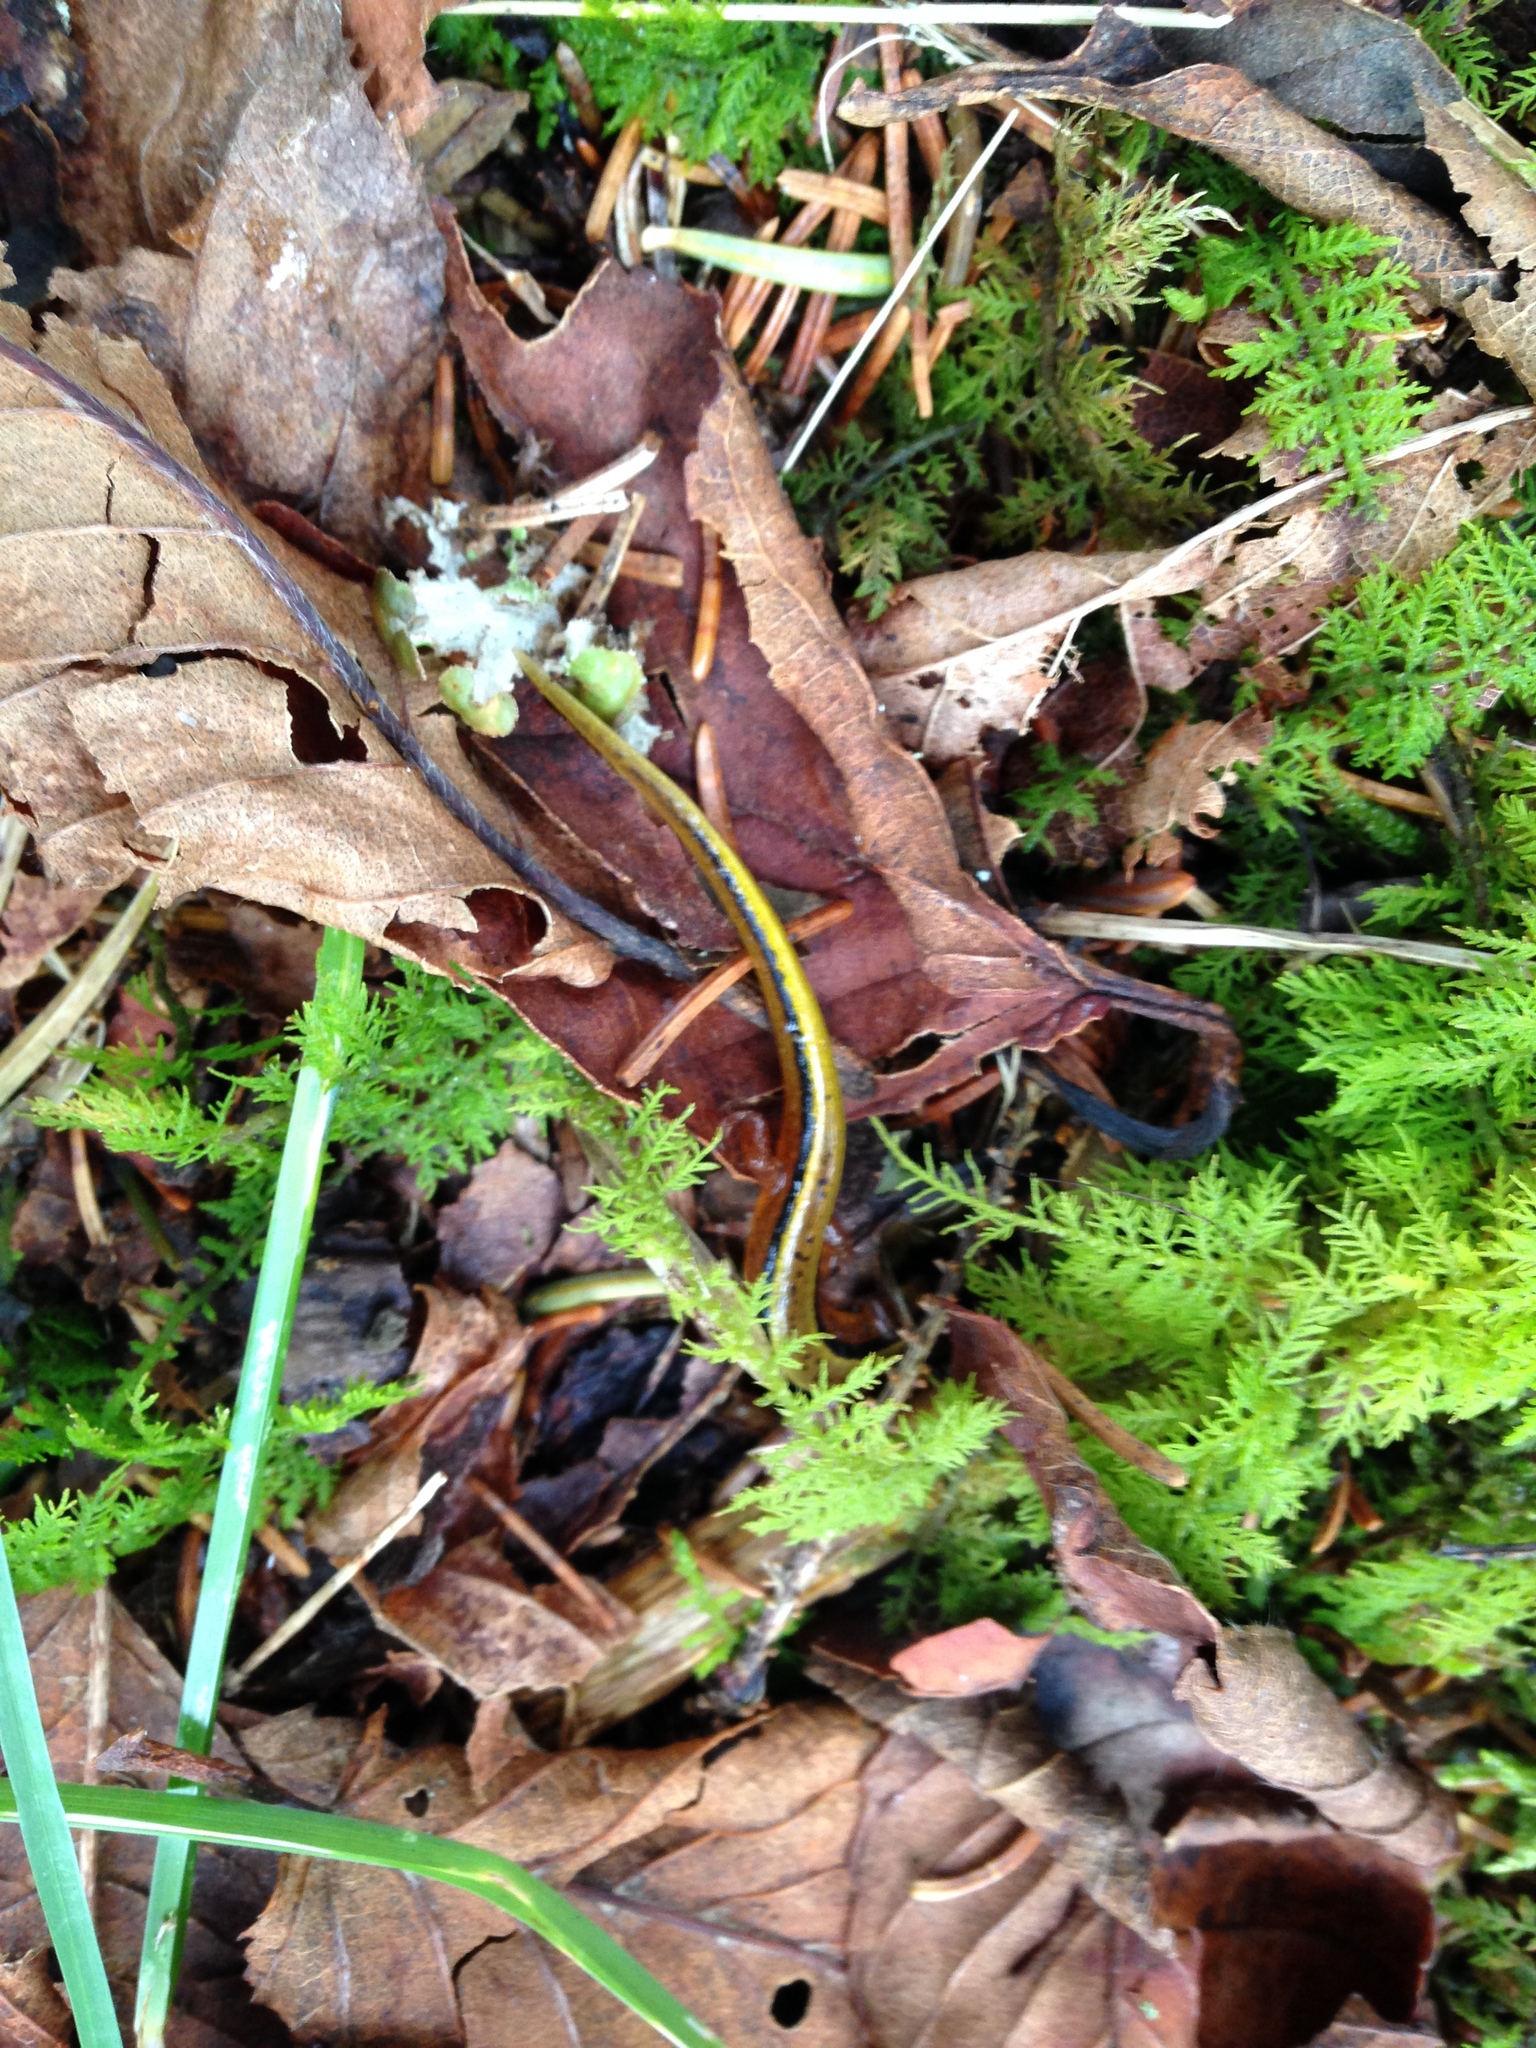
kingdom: Animalia
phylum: Chordata
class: Amphibia
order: Caudata
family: Plethodontidae
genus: Eurycea
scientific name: Eurycea wilderae
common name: Blue ridge two-lined salamander
